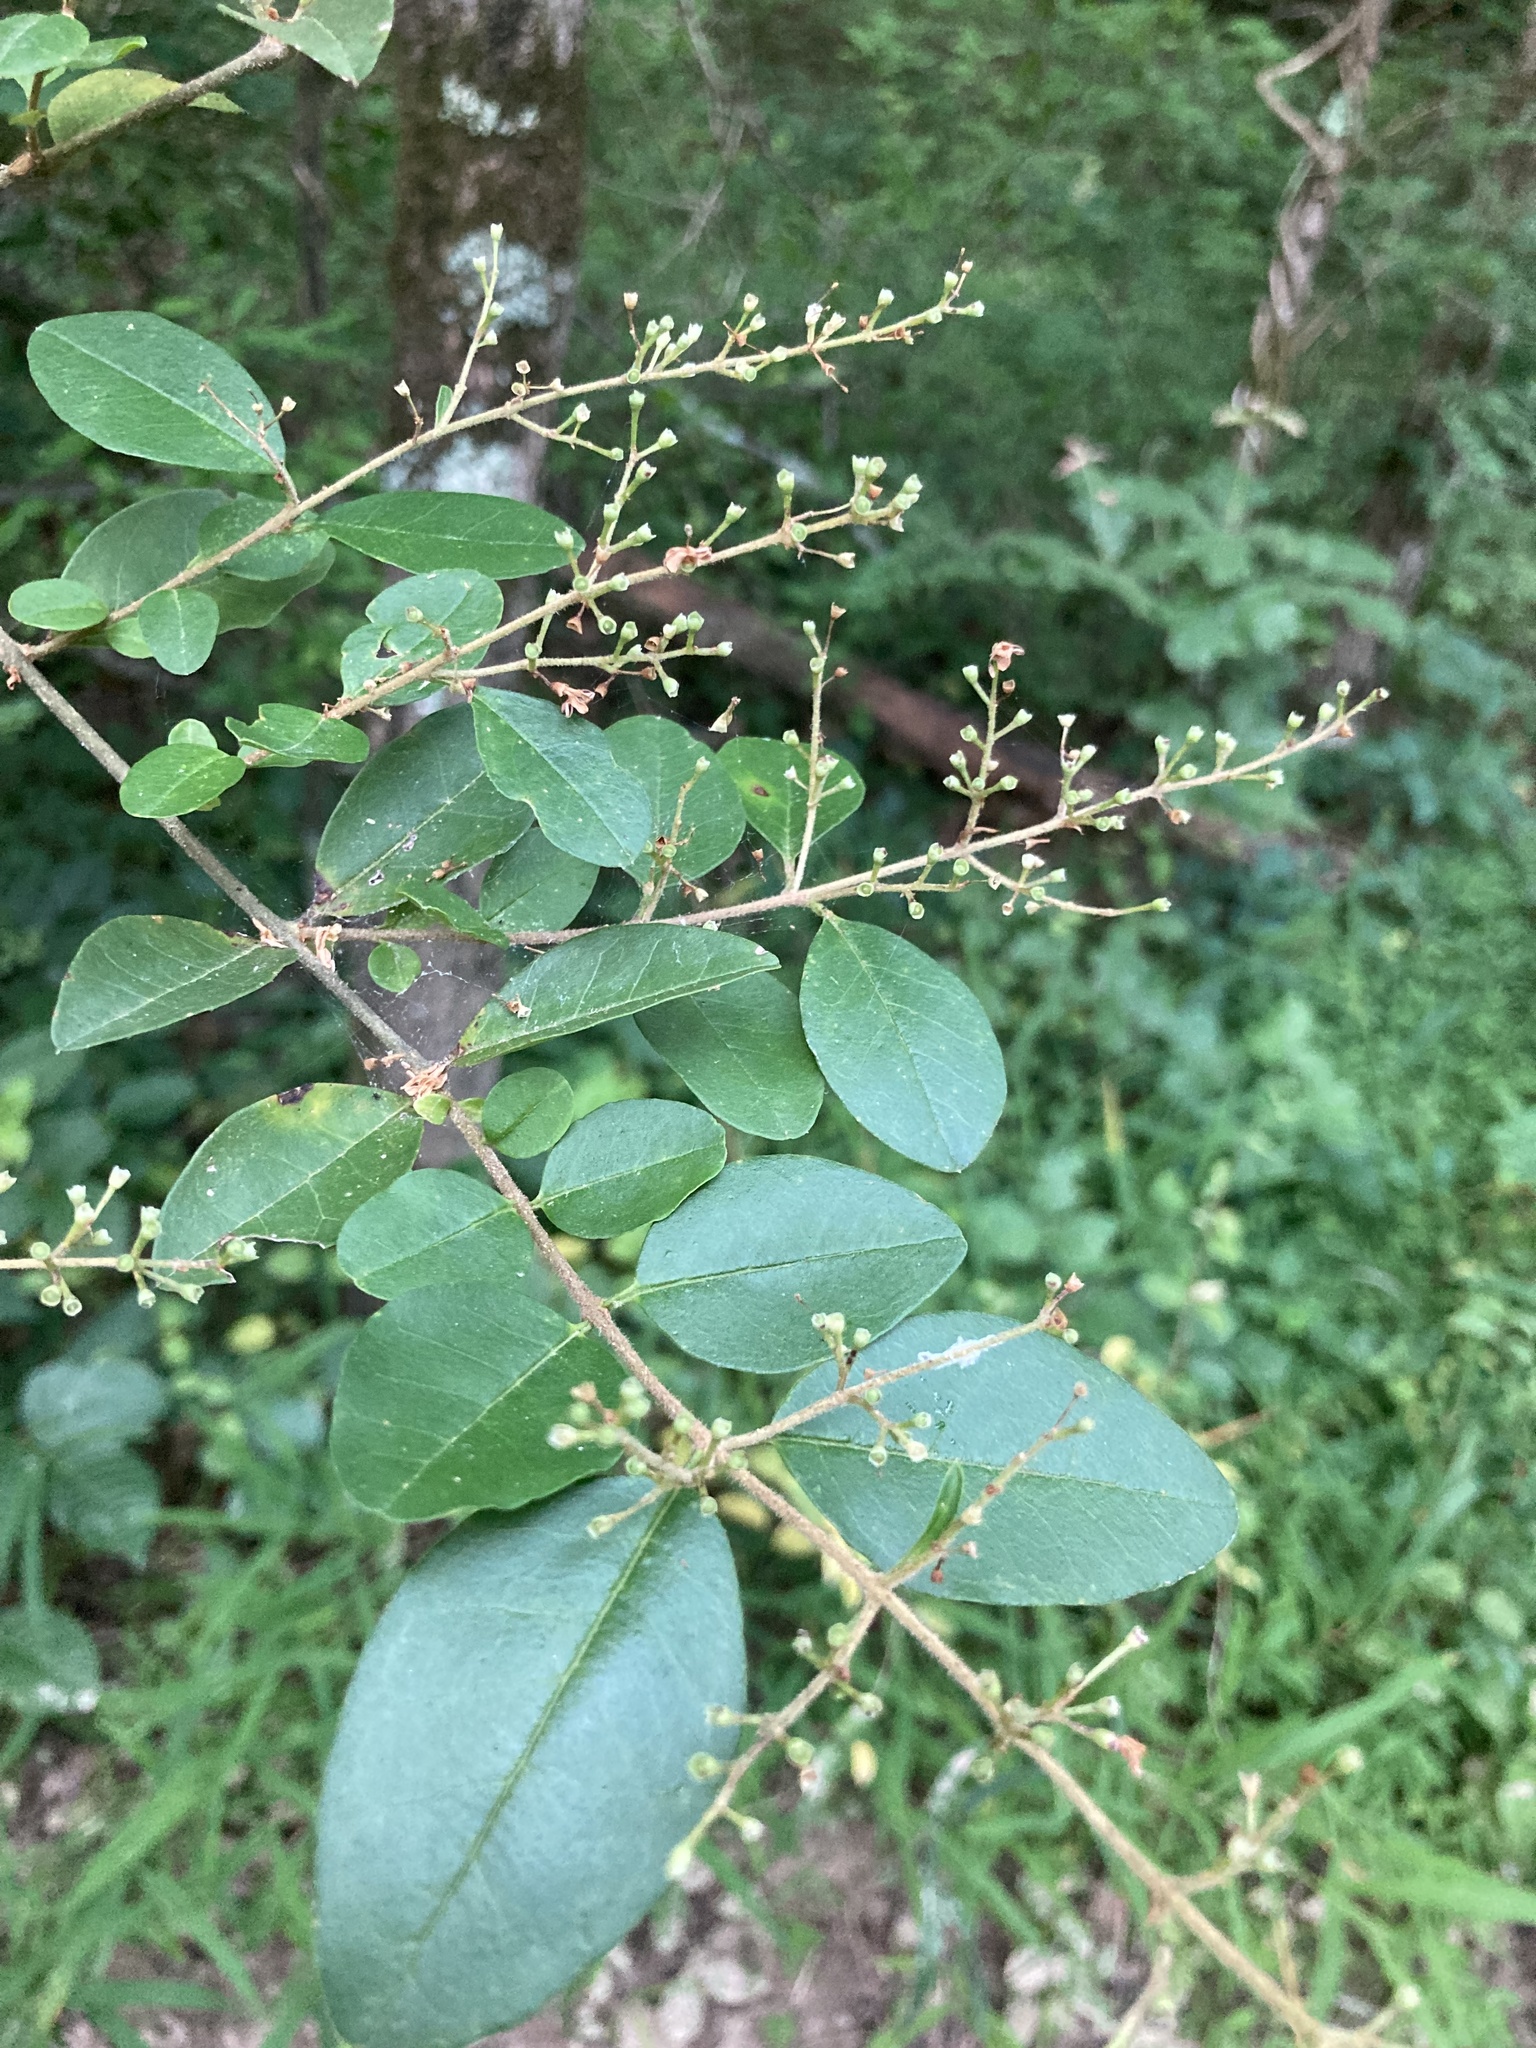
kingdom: Plantae
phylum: Tracheophyta
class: Magnoliopsida
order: Lamiales
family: Oleaceae
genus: Ligustrum
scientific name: Ligustrum sinense
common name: Chinese privet
